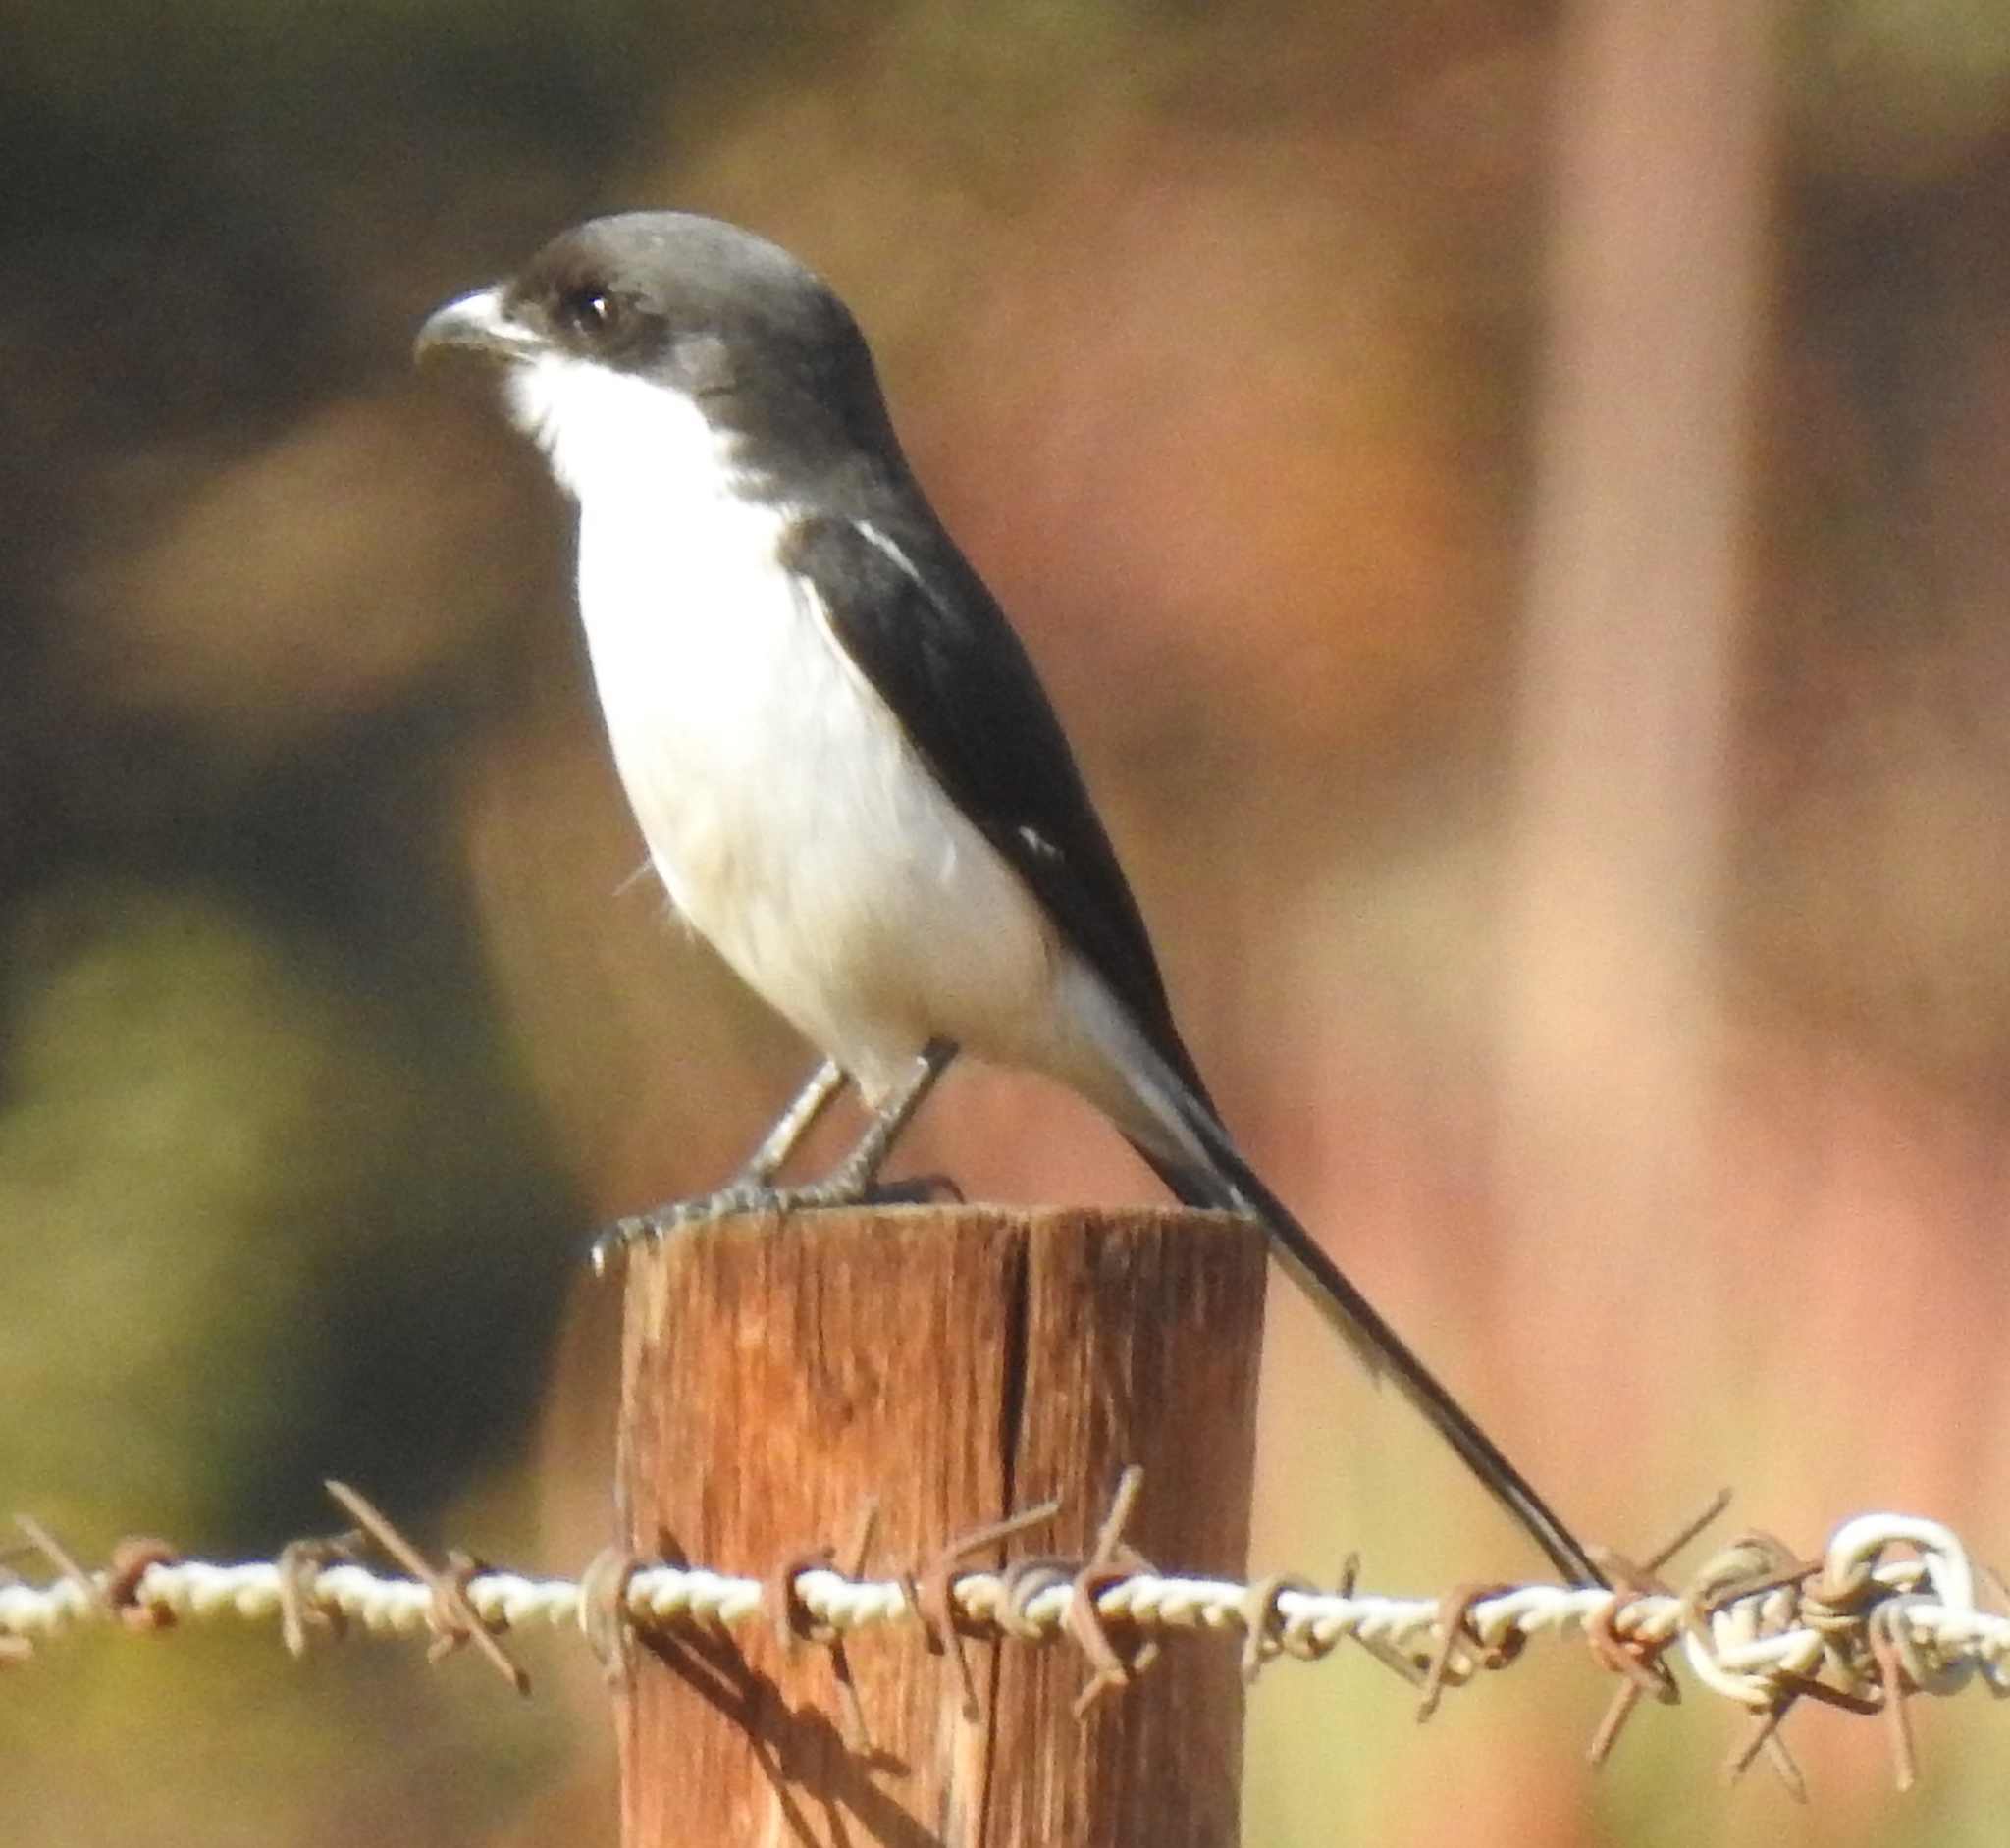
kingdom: Animalia
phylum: Chordata
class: Aves
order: Passeriformes
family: Laniidae
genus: Lanius
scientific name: Lanius collaris
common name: Southern fiscal
